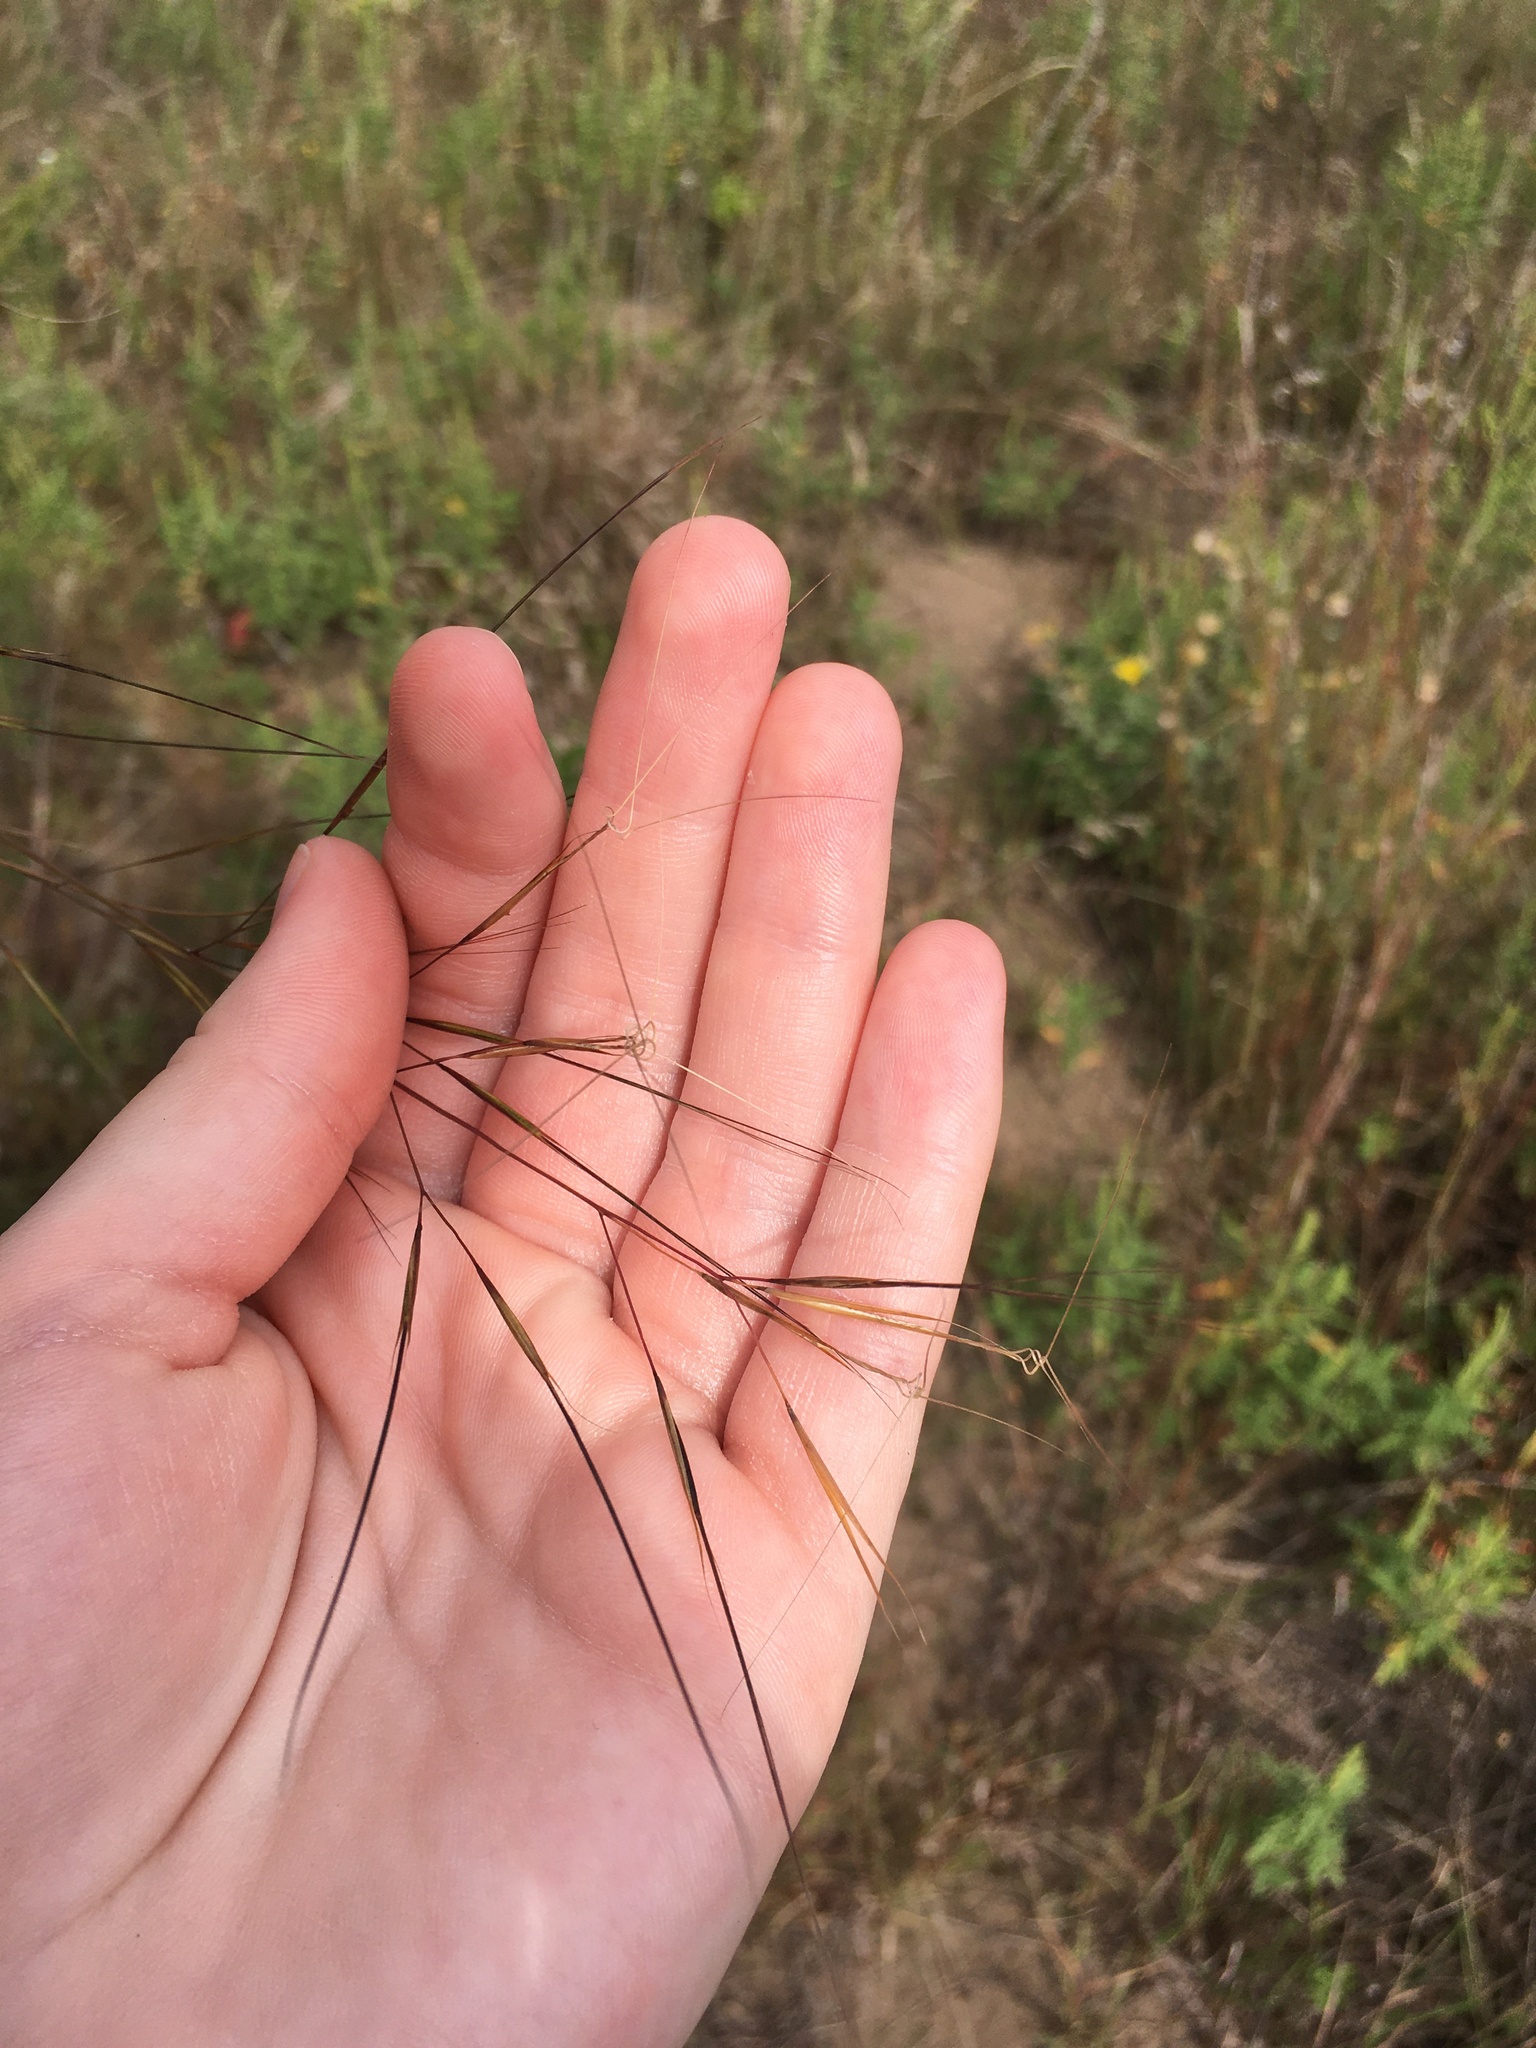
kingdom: Plantae
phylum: Tracheophyta
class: Liliopsida
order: Poales
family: Poaceae
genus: Aristida
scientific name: Aristida tuberculosa
